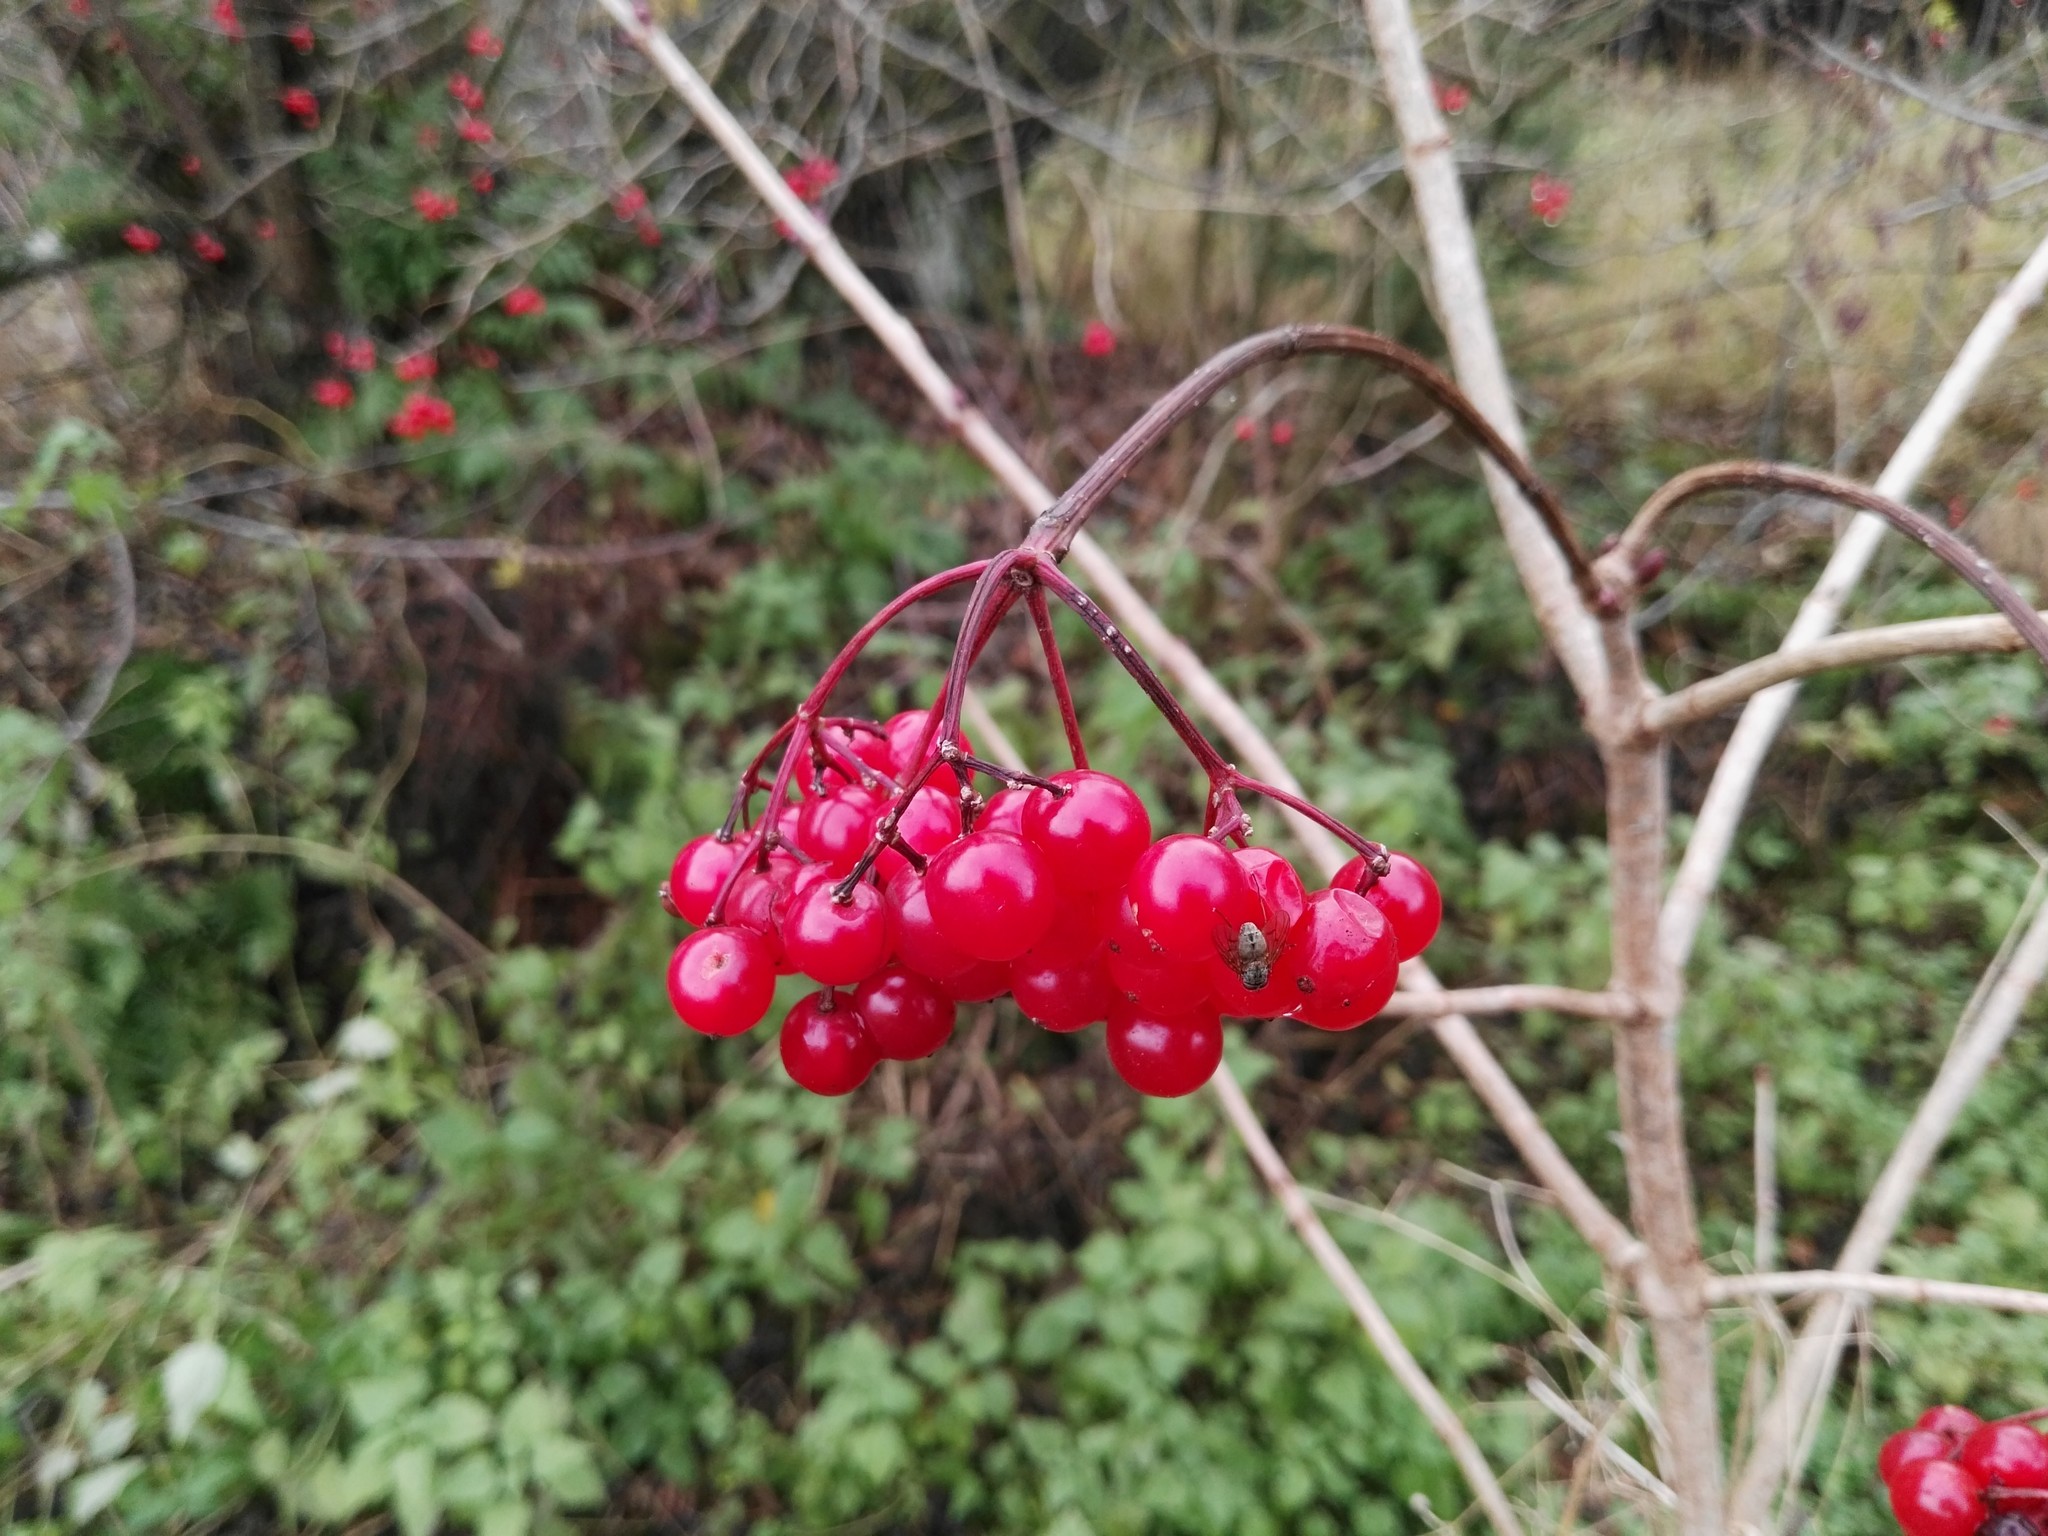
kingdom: Plantae
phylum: Tracheophyta
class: Magnoliopsida
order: Dipsacales
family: Viburnaceae
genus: Viburnum
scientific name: Viburnum opulus
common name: Guelder-rose
